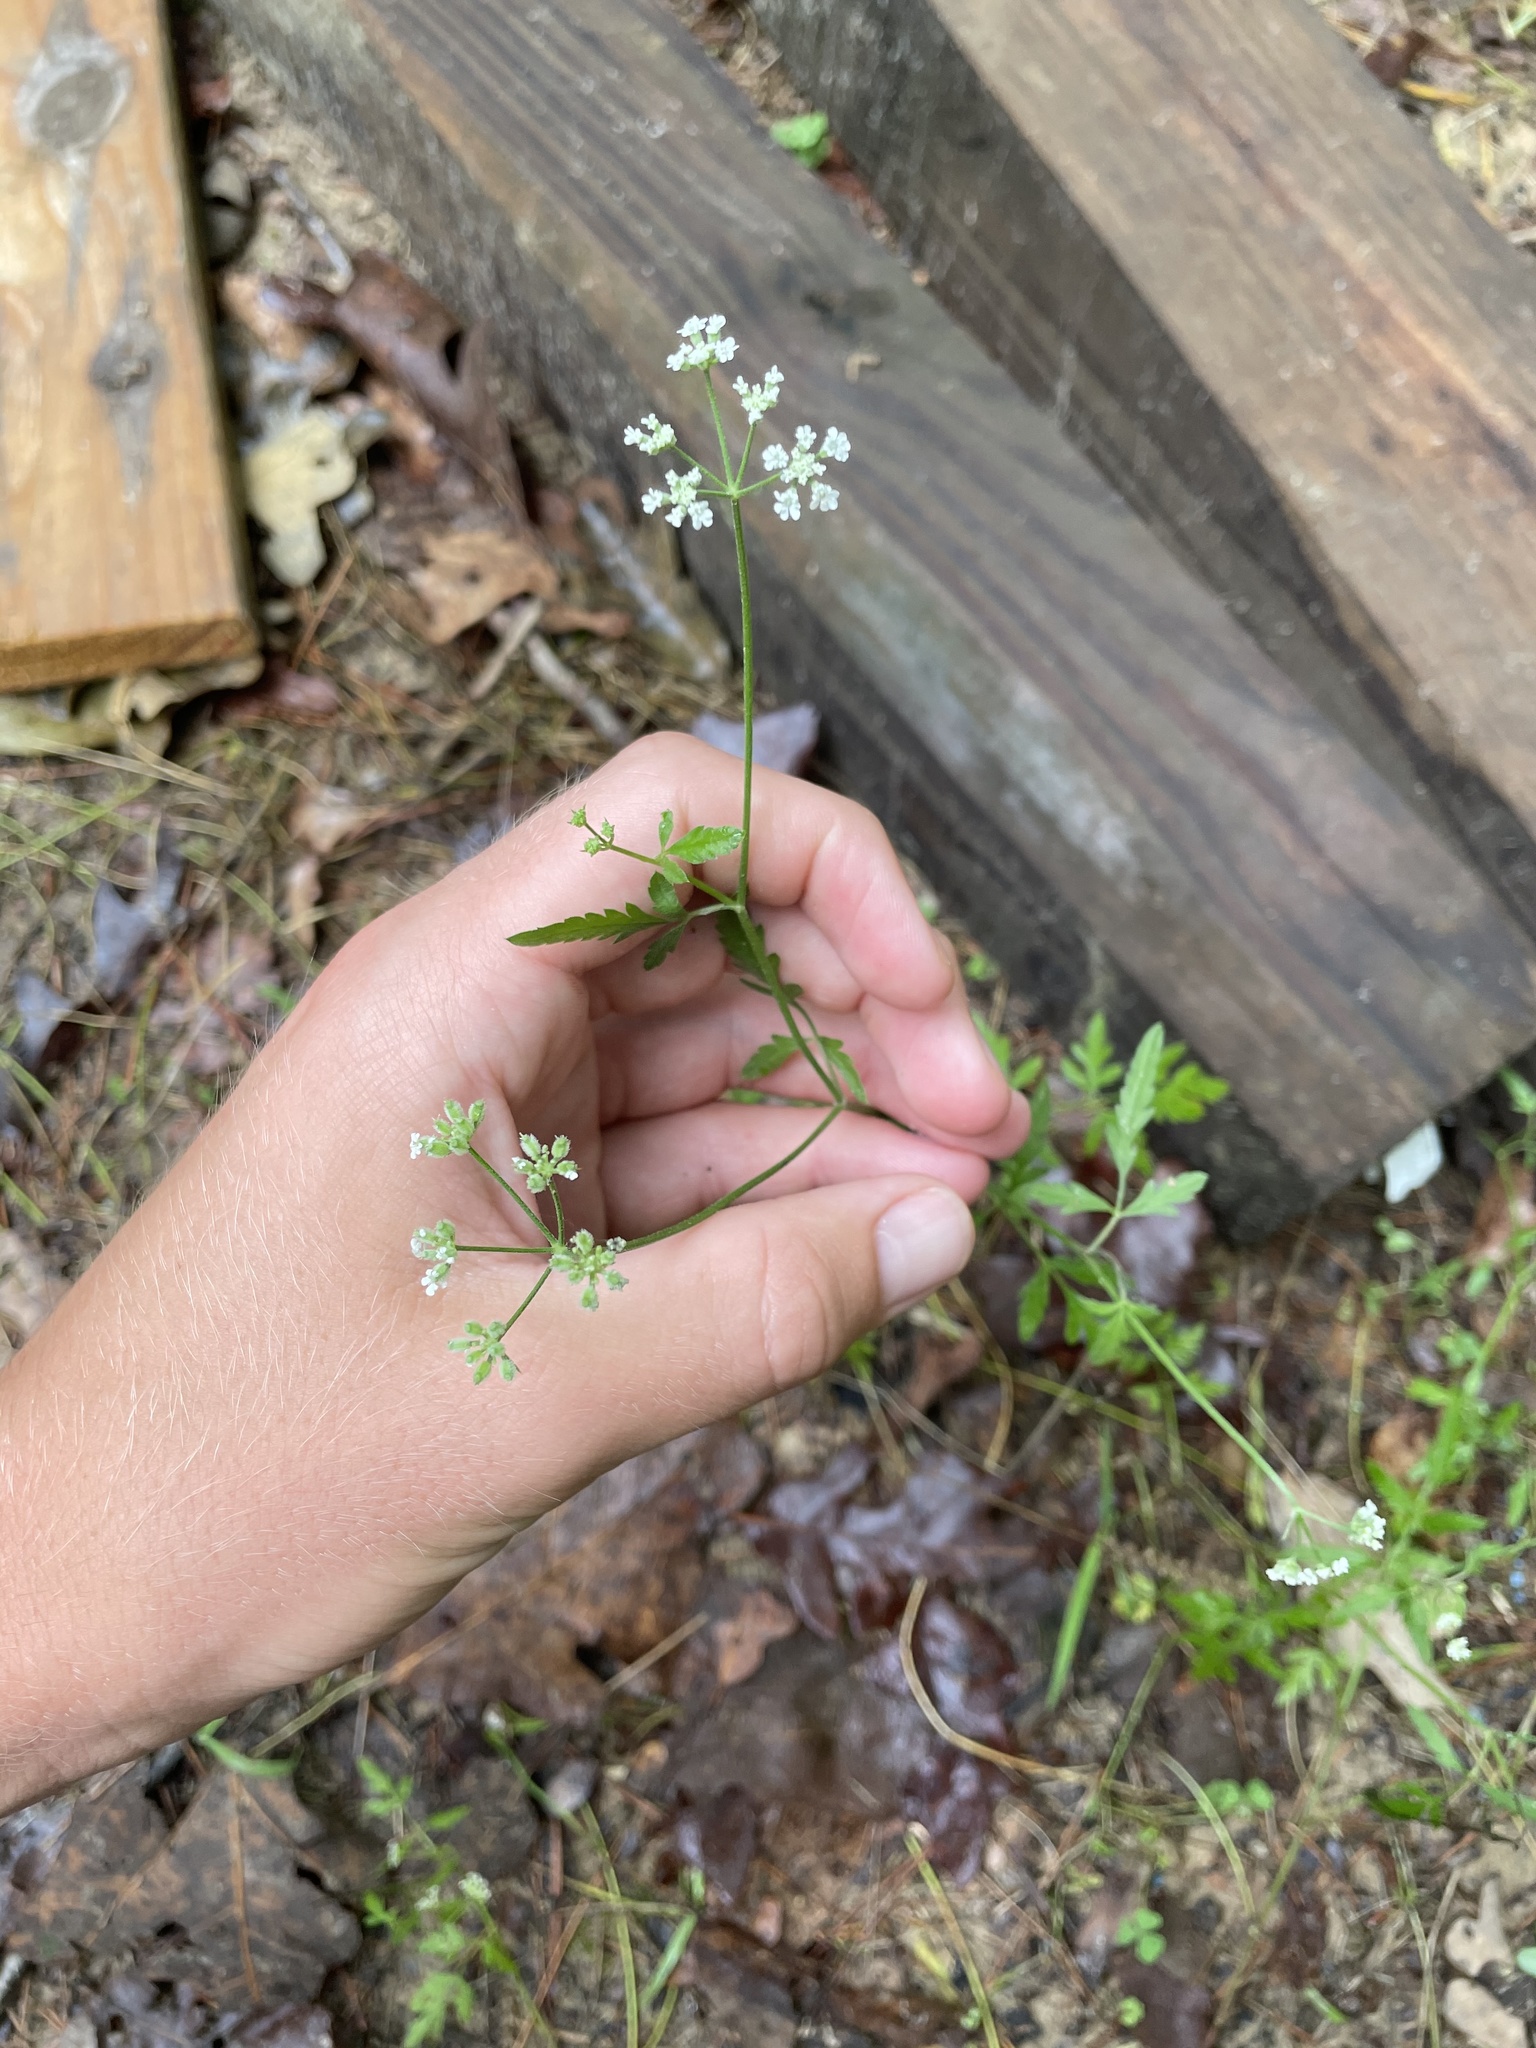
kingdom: Plantae
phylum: Tracheophyta
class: Magnoliopsida
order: Apiales
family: Apiaceae
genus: Torilis
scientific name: Torilis arvensis
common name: Spreading hedge-parsley
